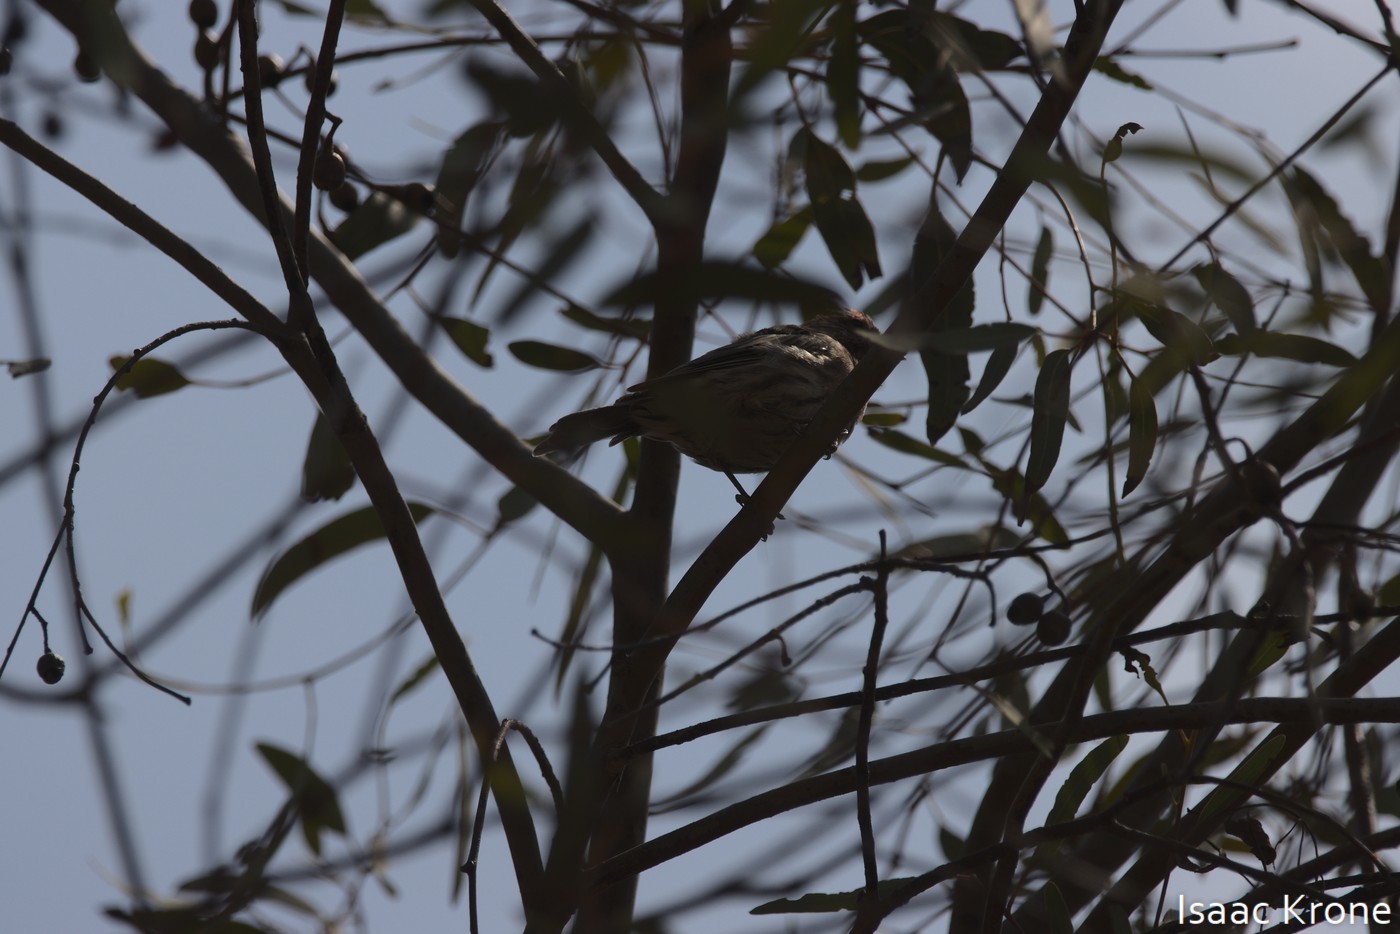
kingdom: Animalia
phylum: Chordata
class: Aves
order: Passeriformes
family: Fringillidae
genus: Haemorhous
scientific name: Haemorhous mexicanus
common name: House finch
